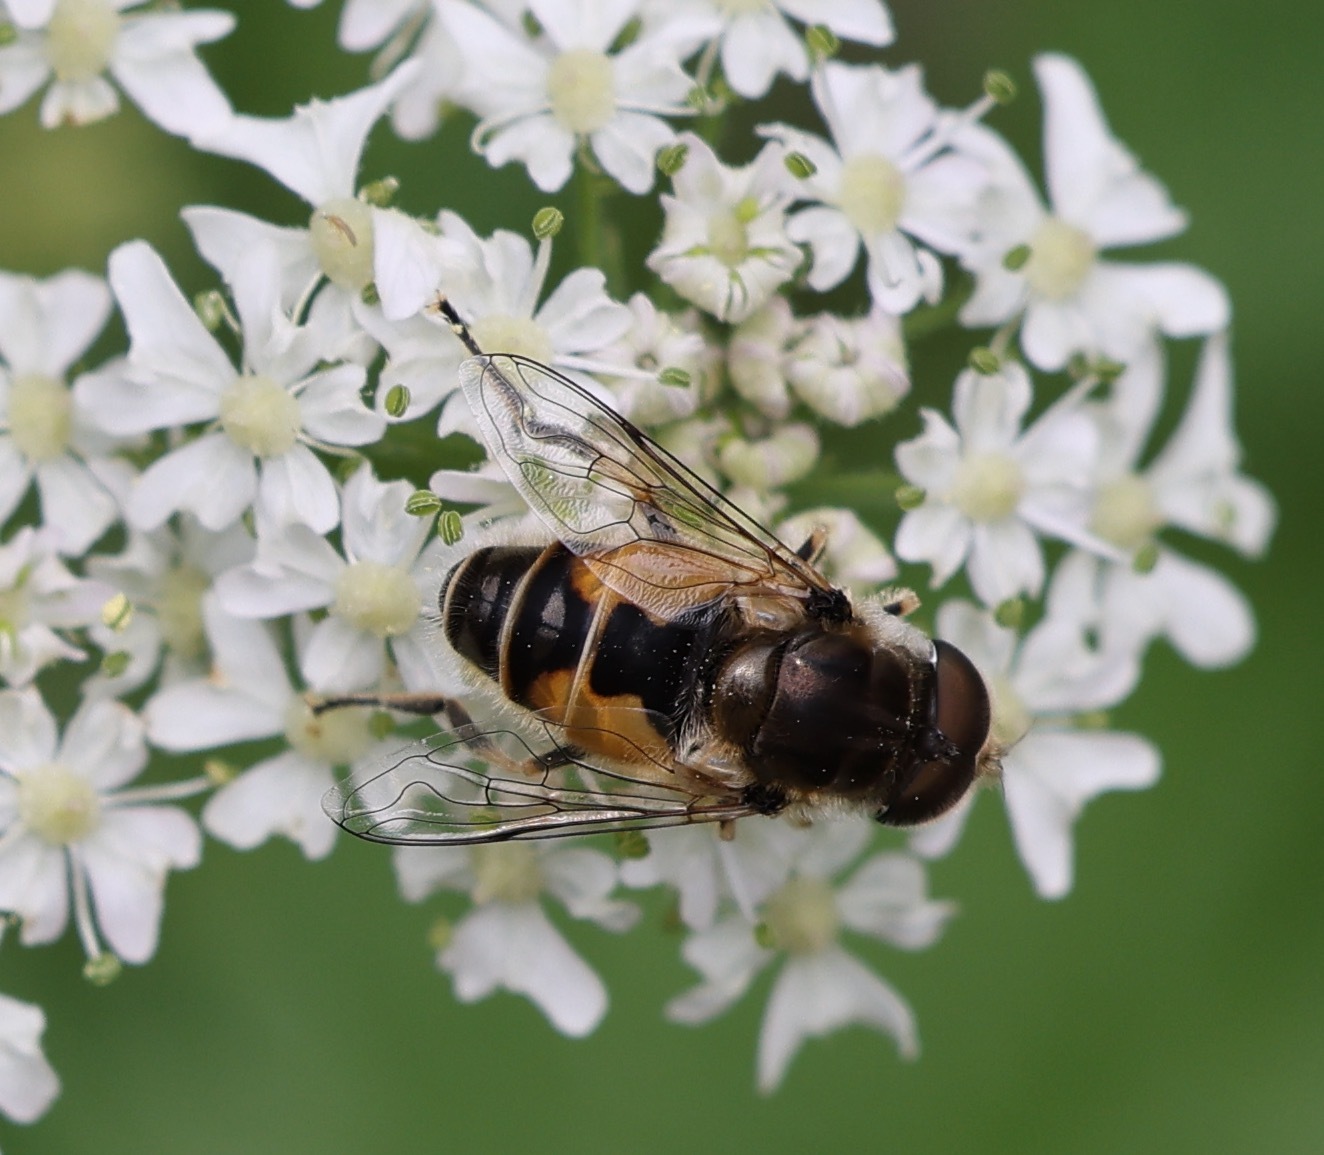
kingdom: Animalia
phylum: Arthropoda
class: Insecta
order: Diptera
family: Syrphidae
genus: Eristalis
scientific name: Eristalis arbustorum
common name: Hover fly
